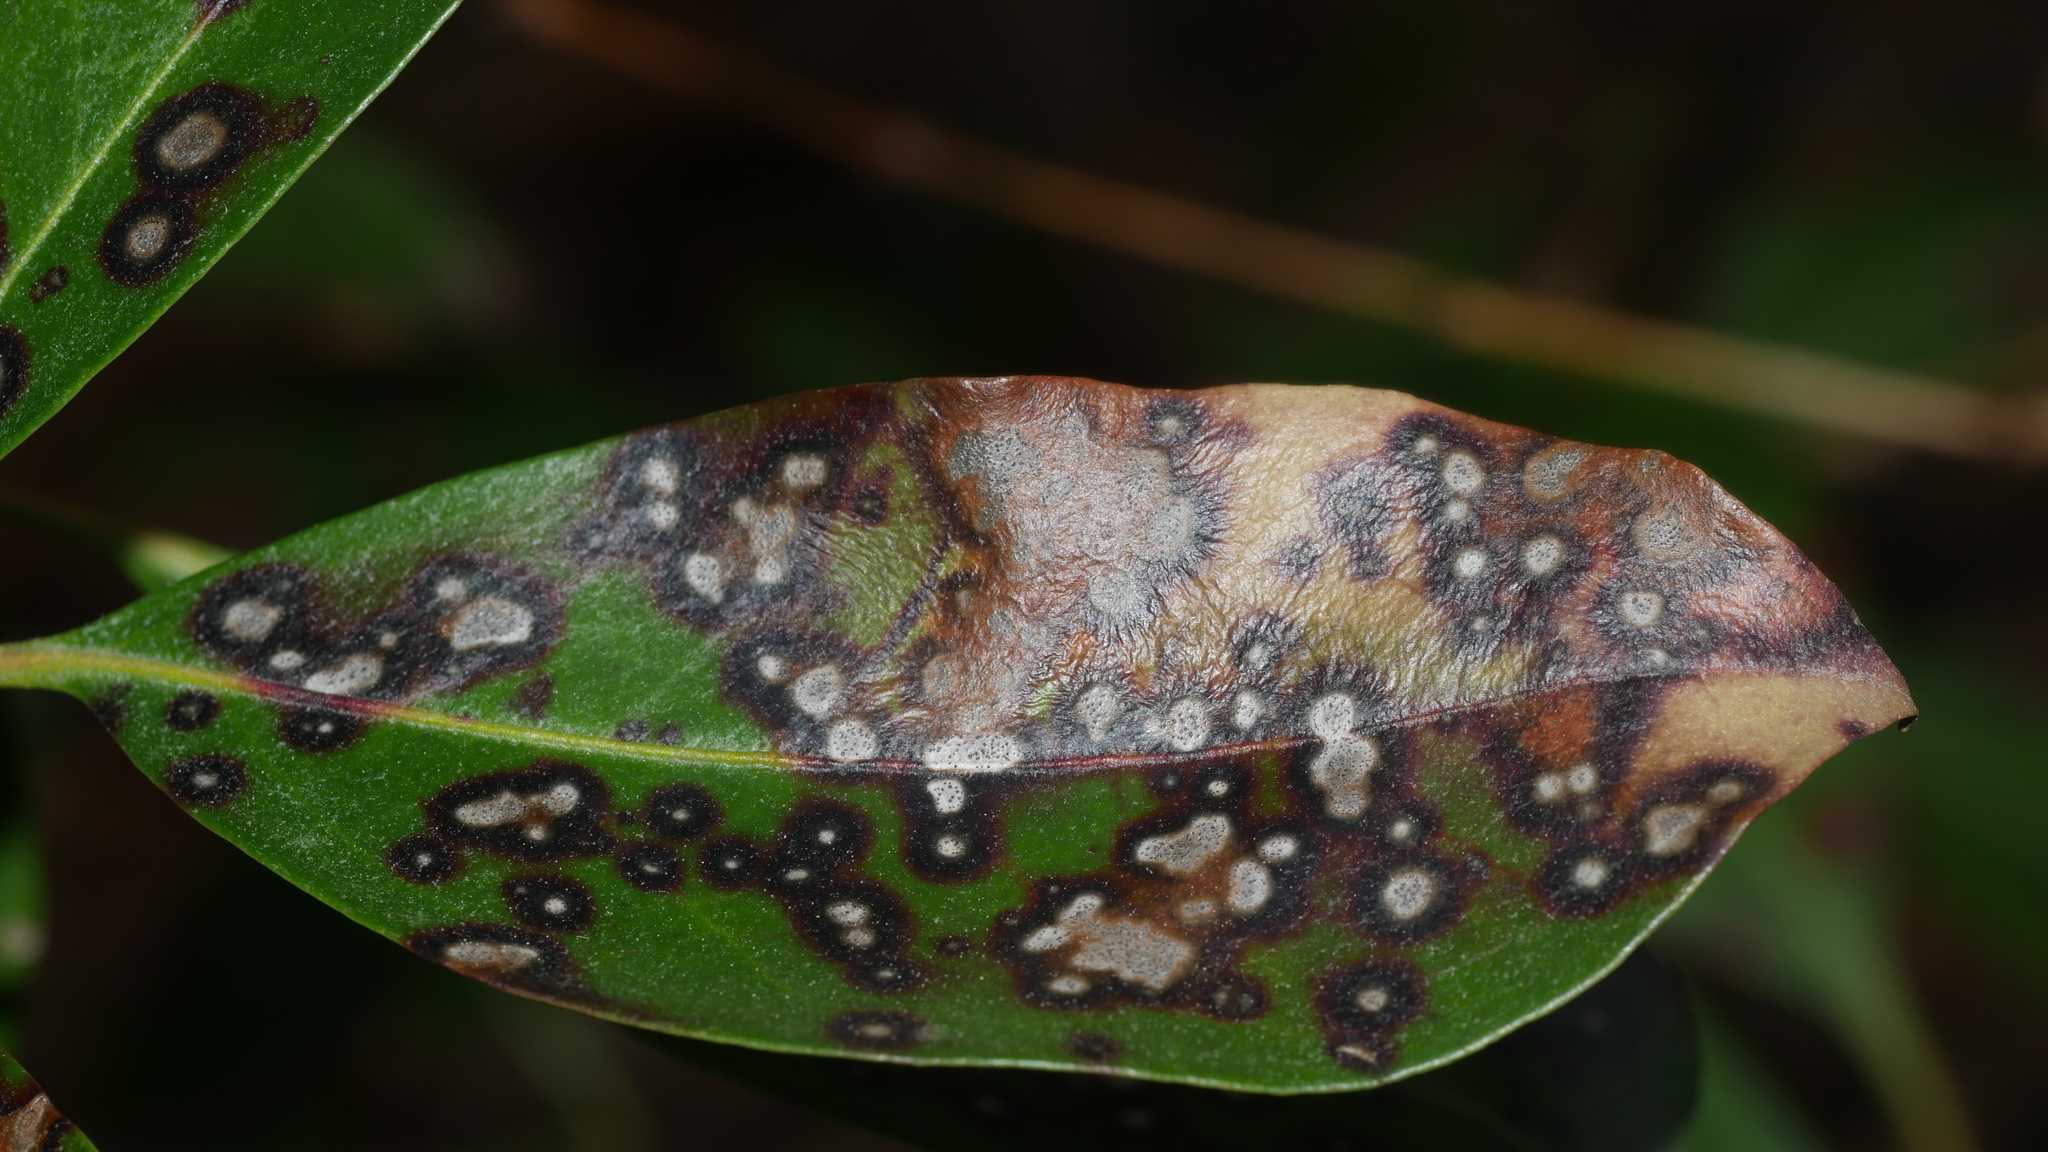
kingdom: Fungi
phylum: Ascomycota
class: Dothideomycetes
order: Mycosphaerellales
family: Mycosphaerellaceae
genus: Mycosphaerella
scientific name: Mycosphaerella colorata
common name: Mountain laurel leaf spot
